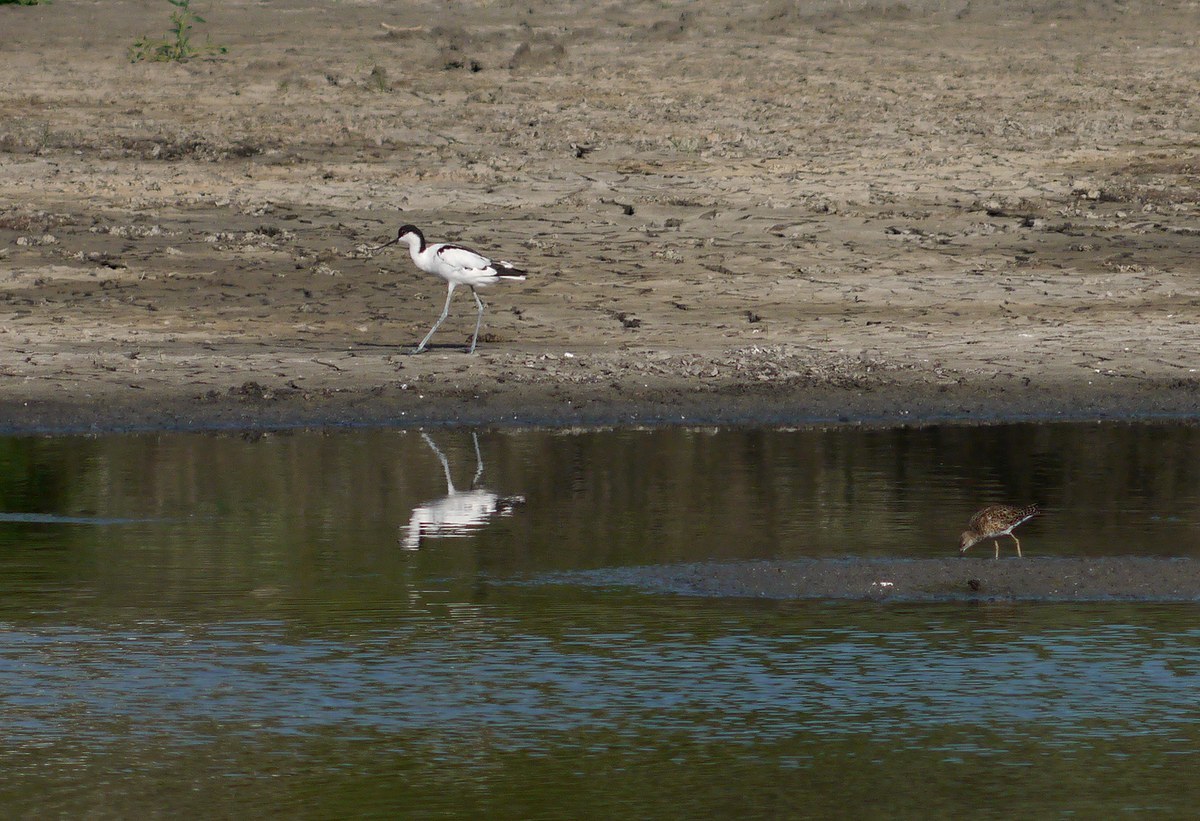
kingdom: Animalia
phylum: Chordata
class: Aves
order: Charadriiformes
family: Recurvirostridae
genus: Recurvirostra
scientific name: Recurvirostra avosetta
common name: Pied avocet
